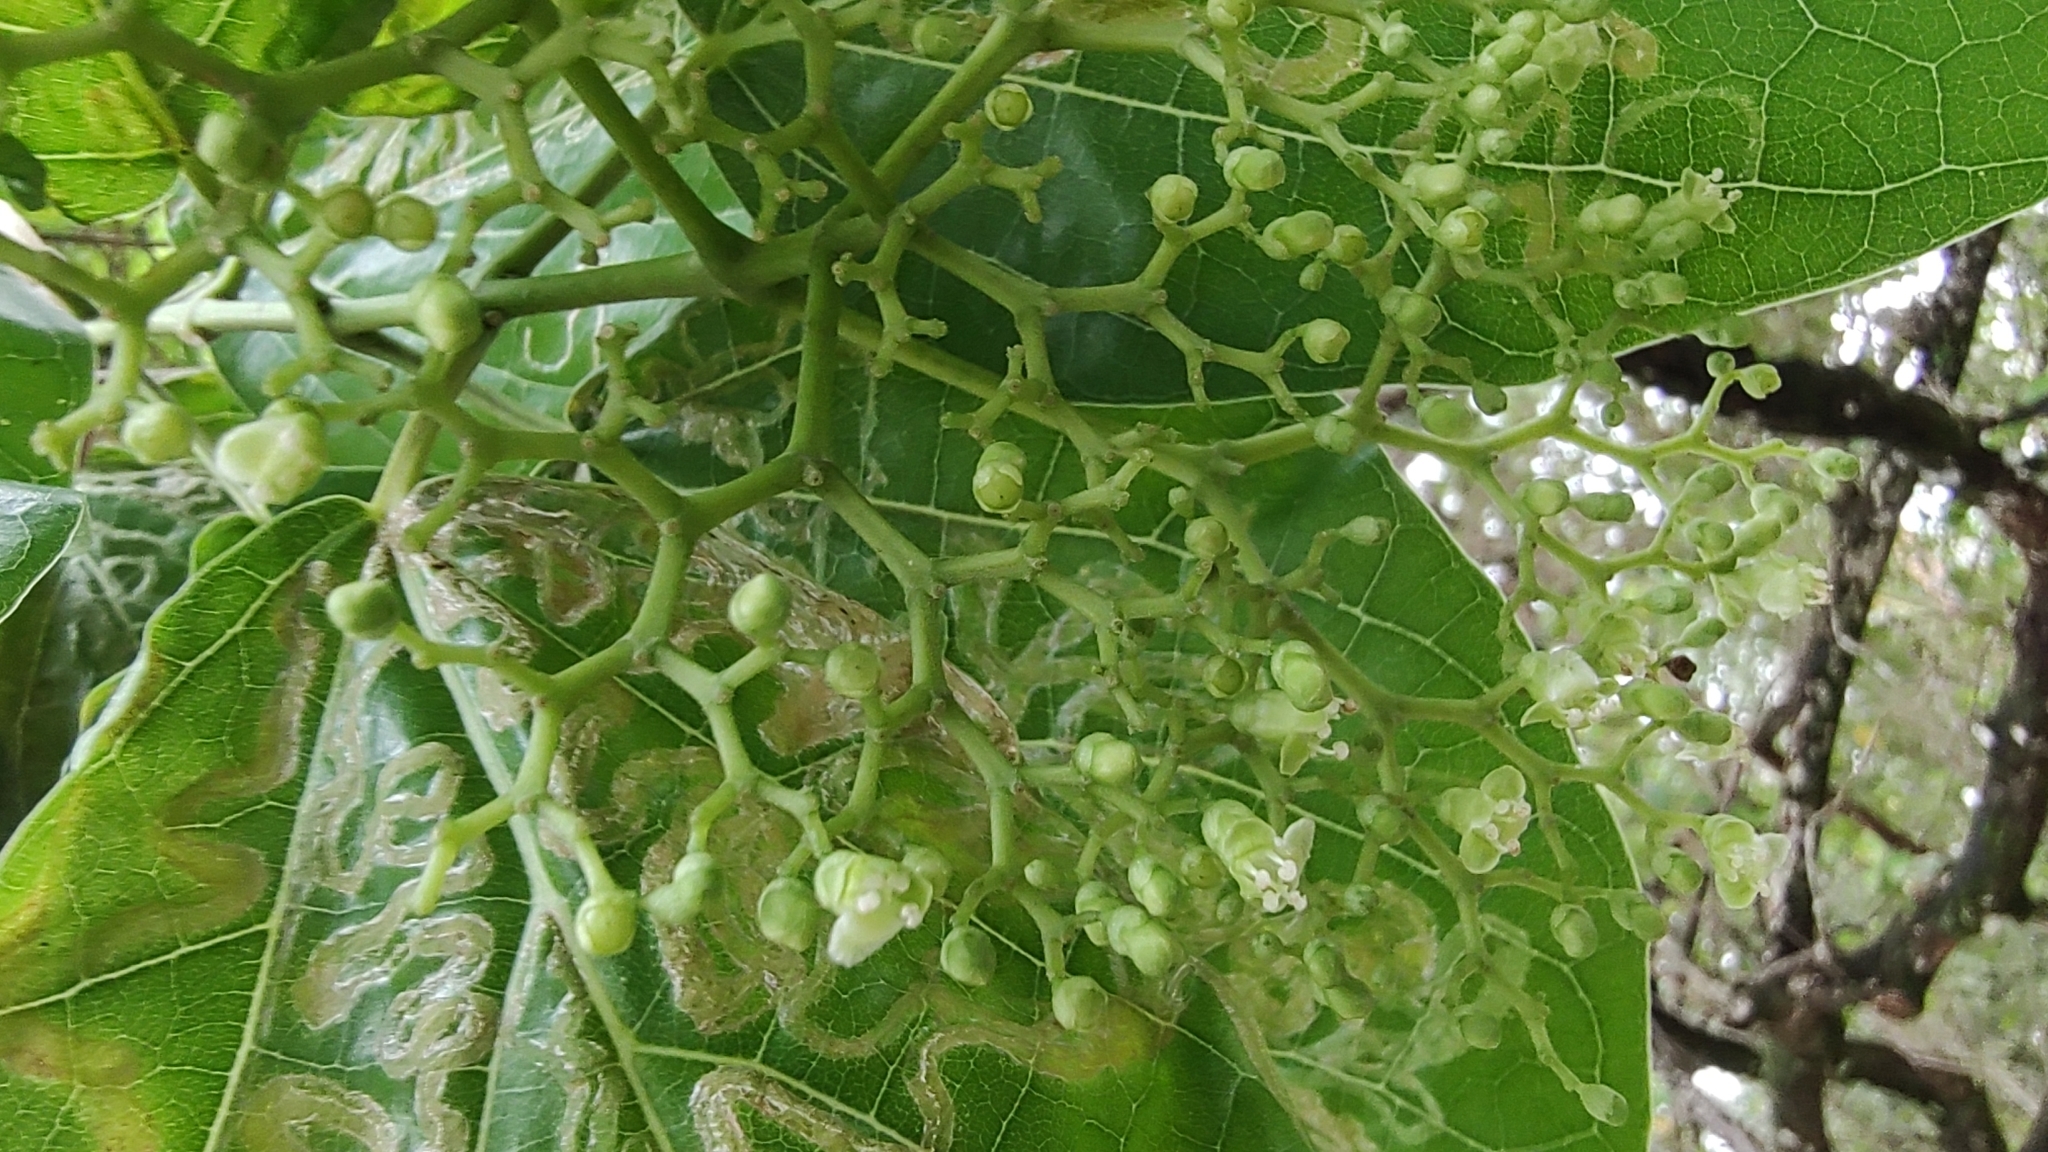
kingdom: Plantae
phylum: Tracheophyta
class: Magnoliopsida
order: Lamiales
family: Lamiaceae
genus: Premna
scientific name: Premna serratifolia
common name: Bastard guelder
